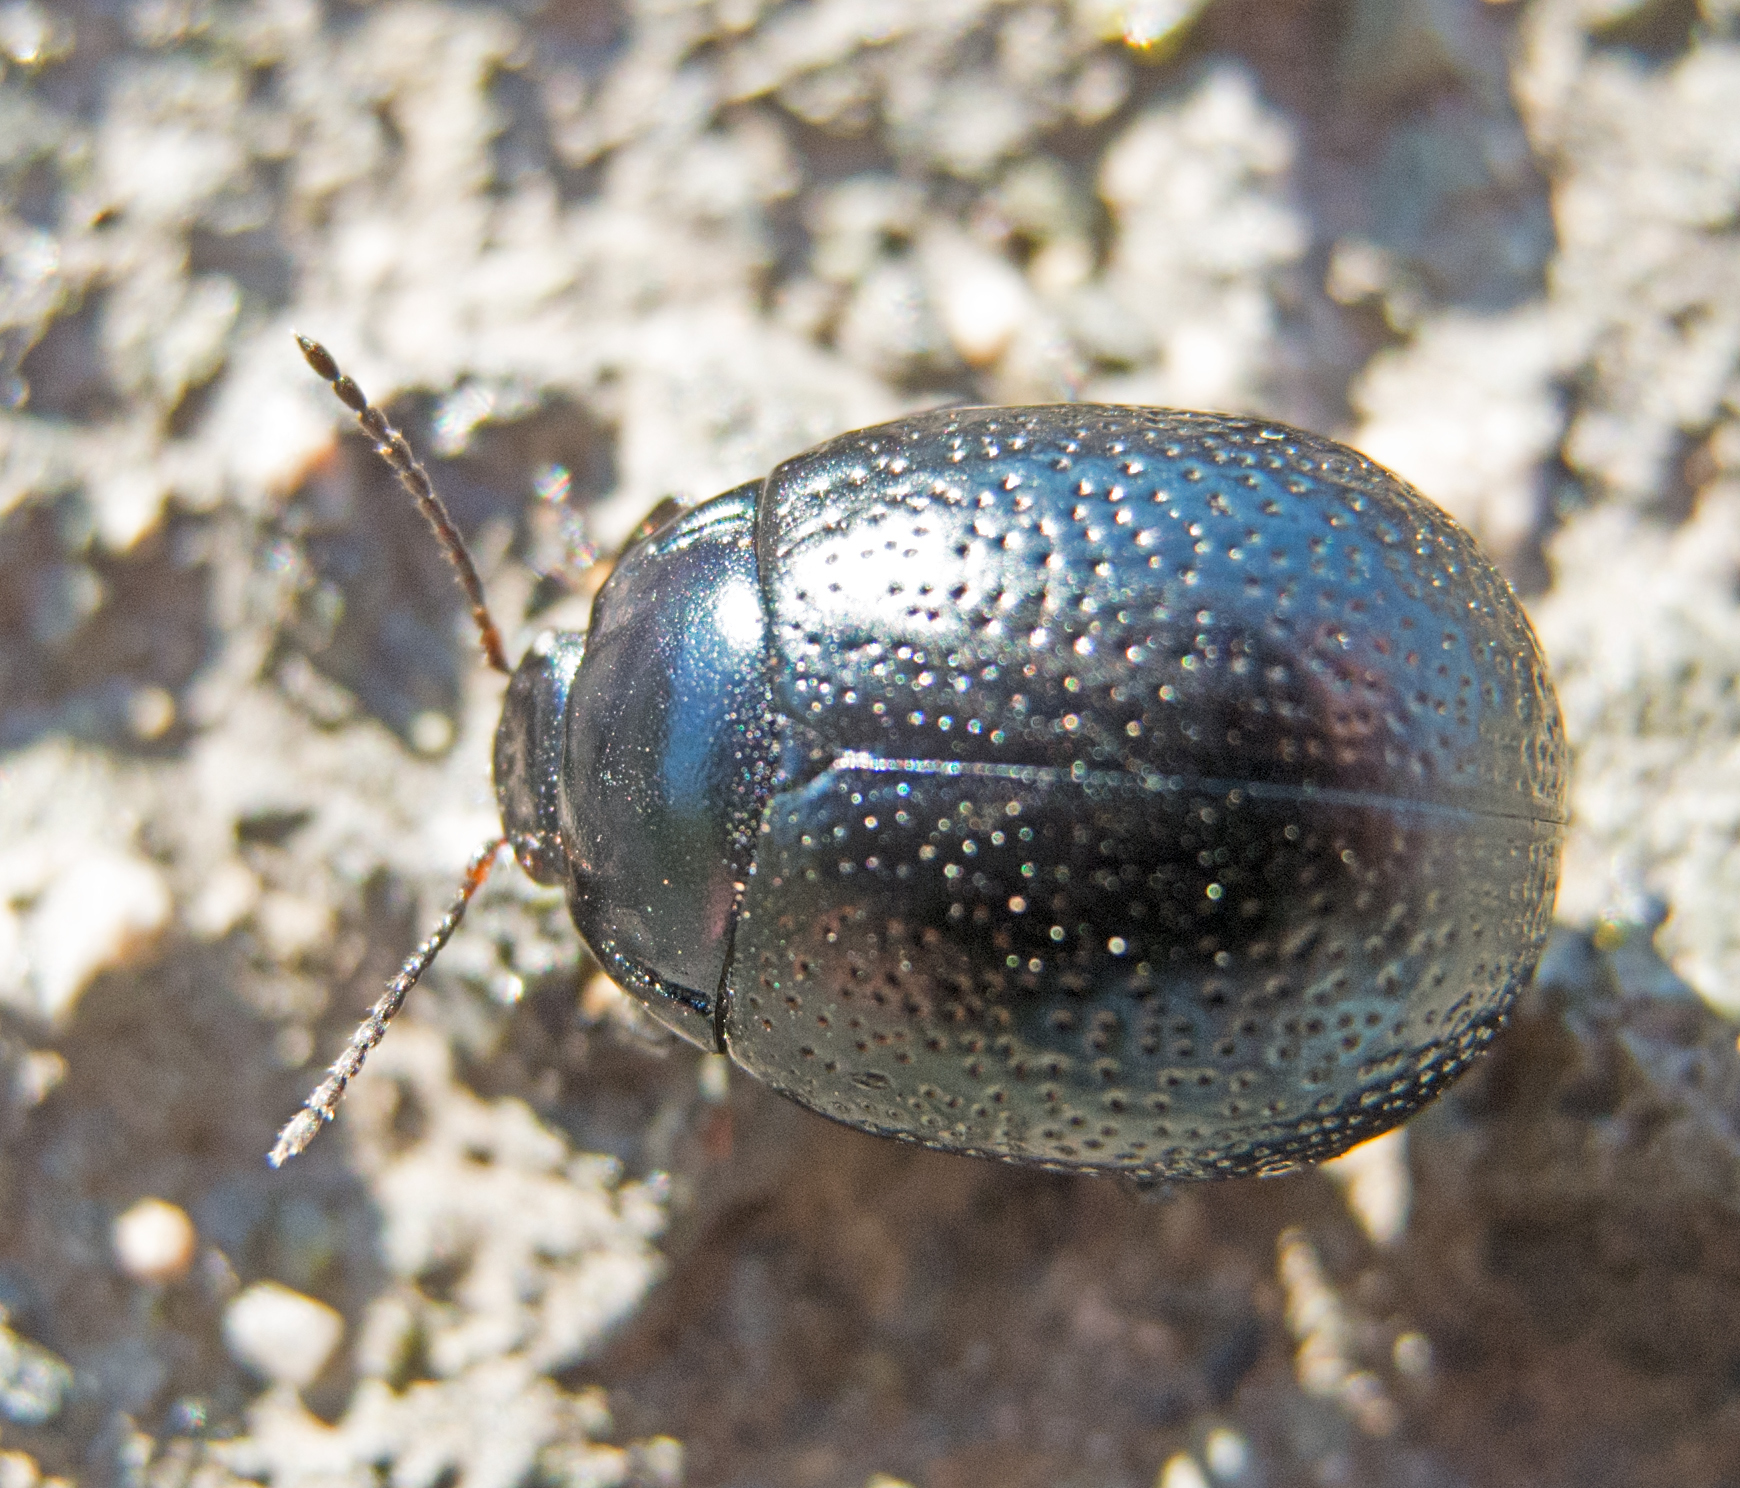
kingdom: Animalia
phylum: Arthropoda
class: Insecta
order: Coleoptera
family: Chrysomelidae
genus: Chrysolina
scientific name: Chrysolina vernalis
